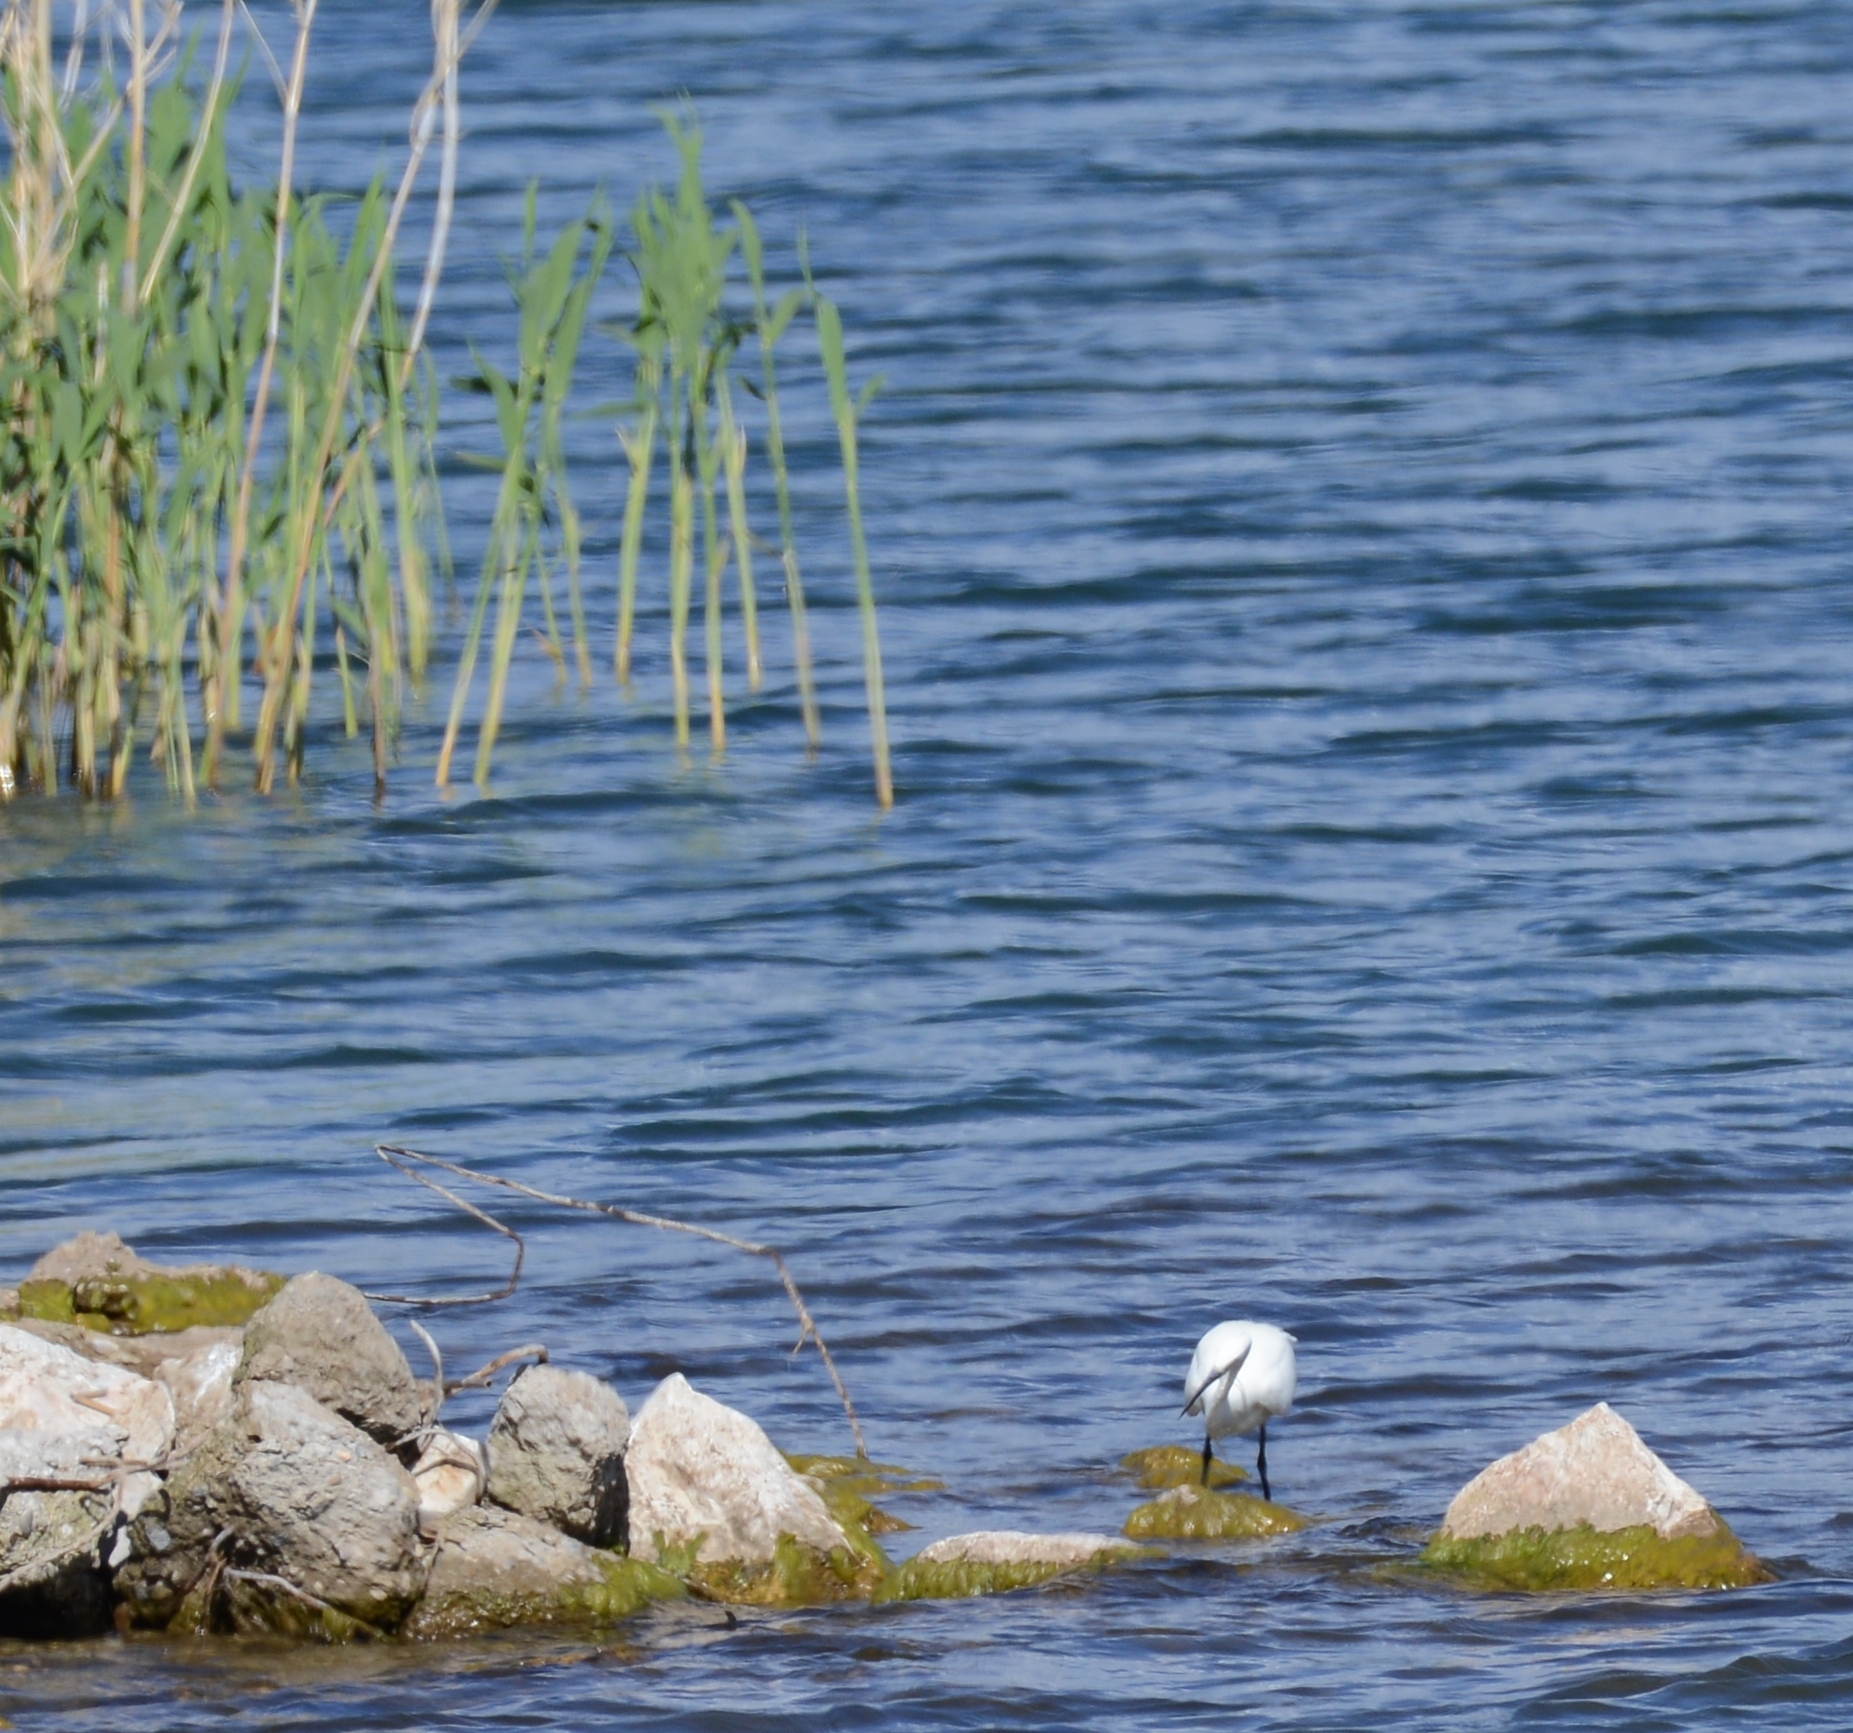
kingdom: Animalia
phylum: Chordata
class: Aves
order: Pelecaniformes
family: Ardeidae
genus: Egretta
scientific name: Egretta garzetta
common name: Little egret
